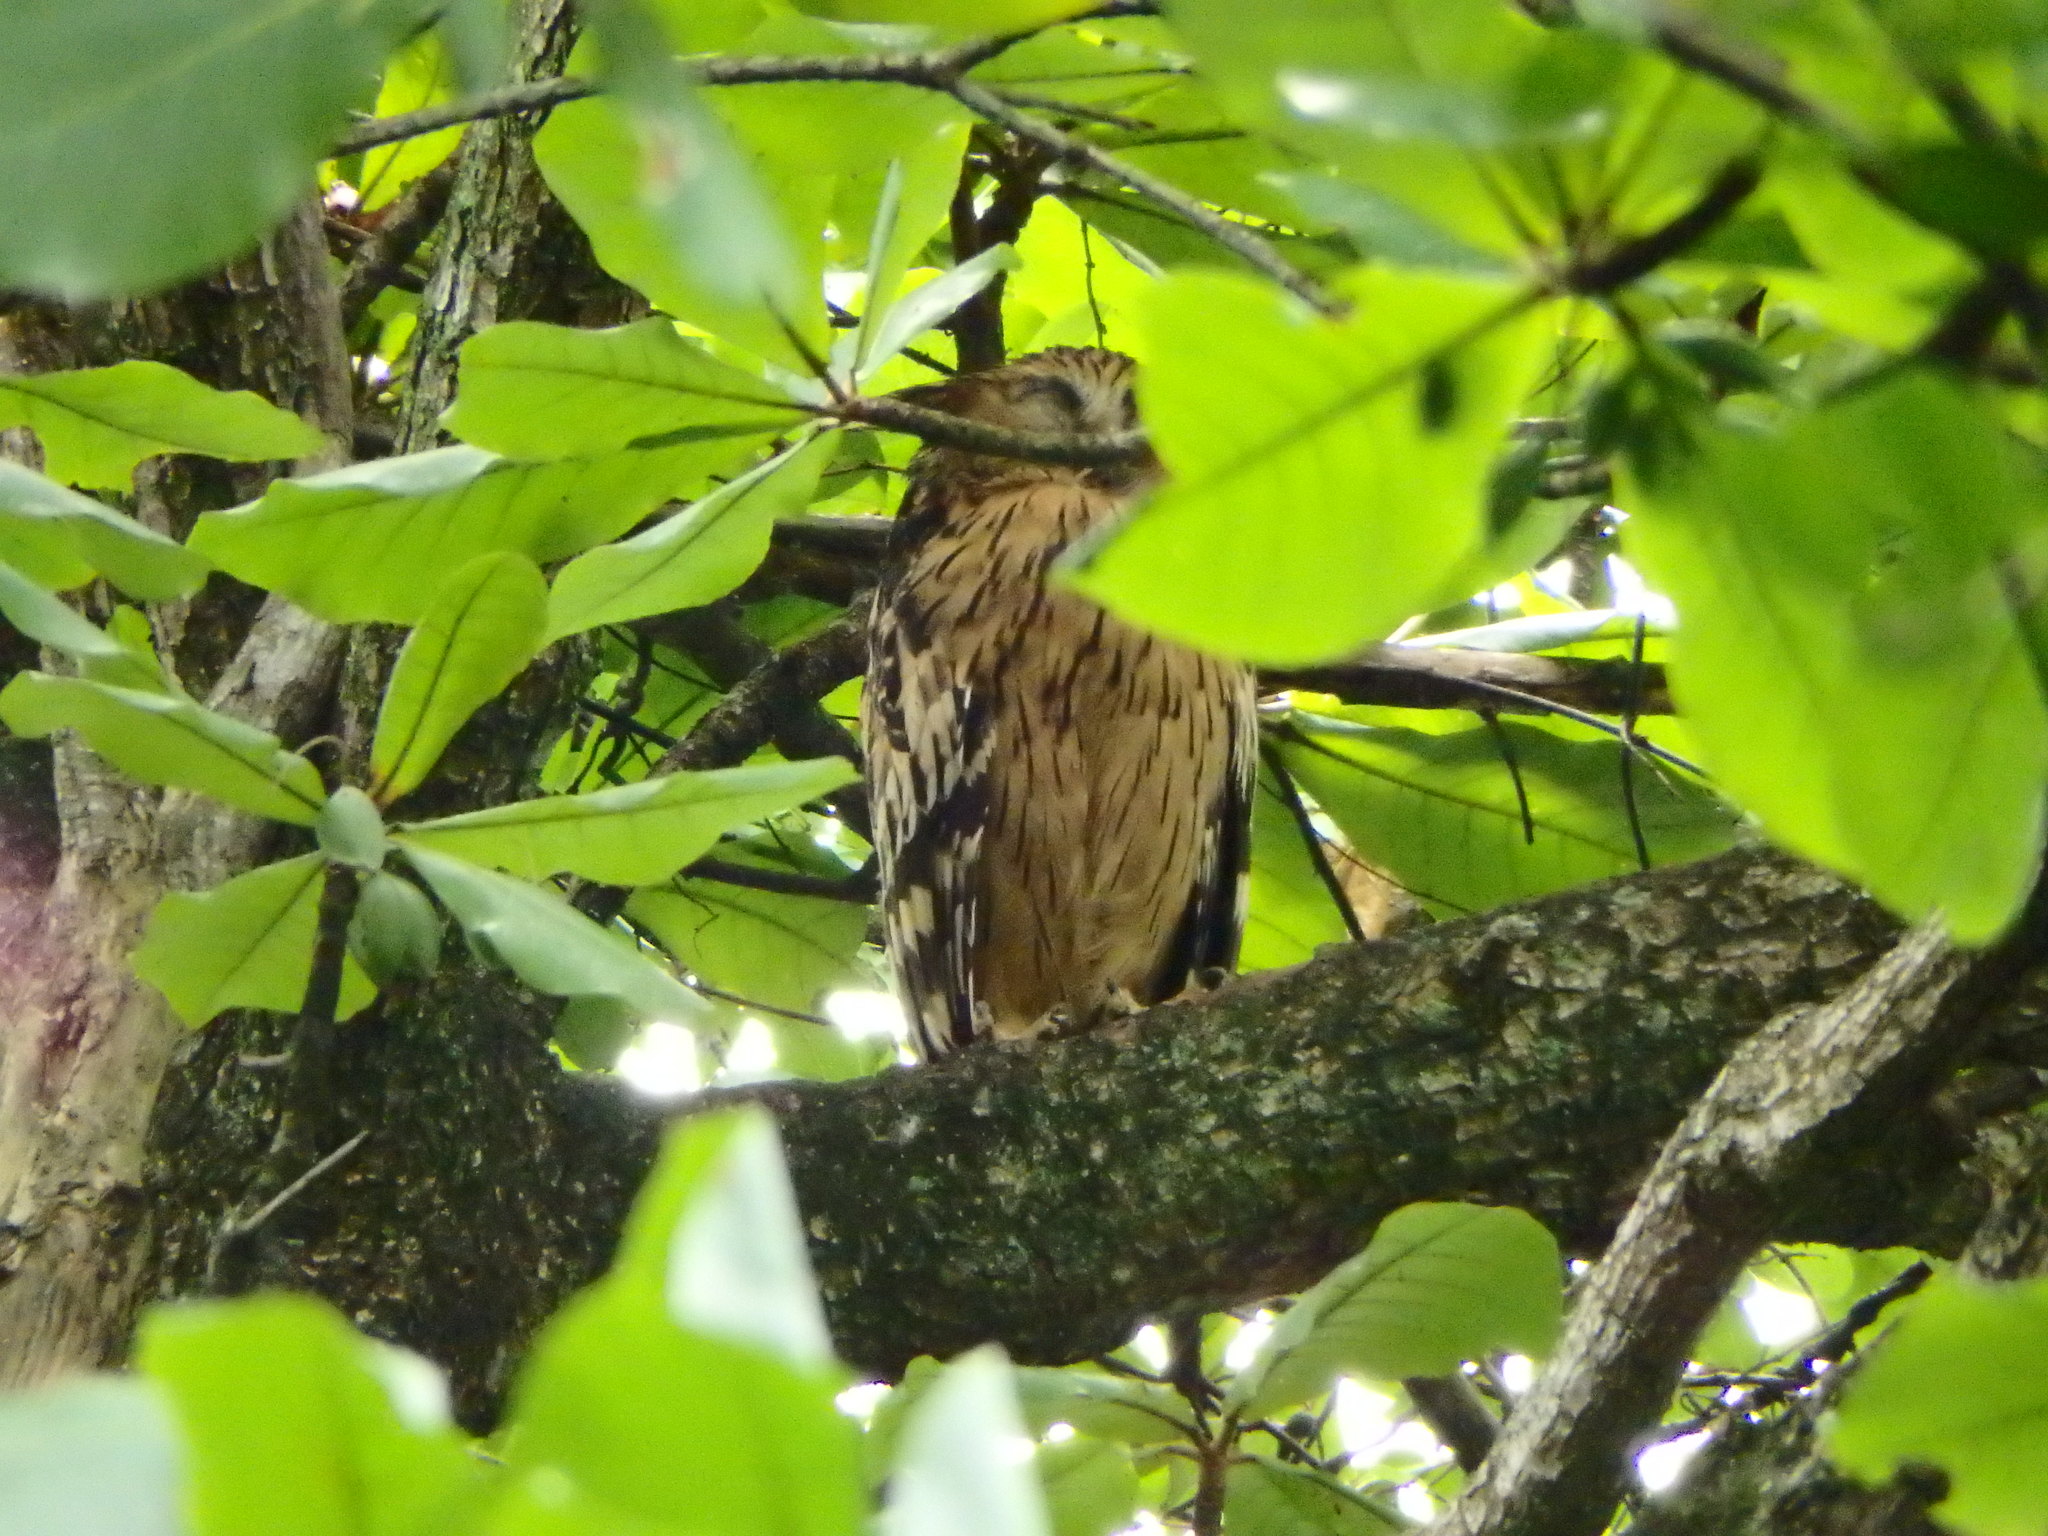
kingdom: Animalia
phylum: Chordata
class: Aves
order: Strigiformes
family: Strigidae
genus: Ketupa
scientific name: Ketupa ketupu
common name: Buffy fish-owl
